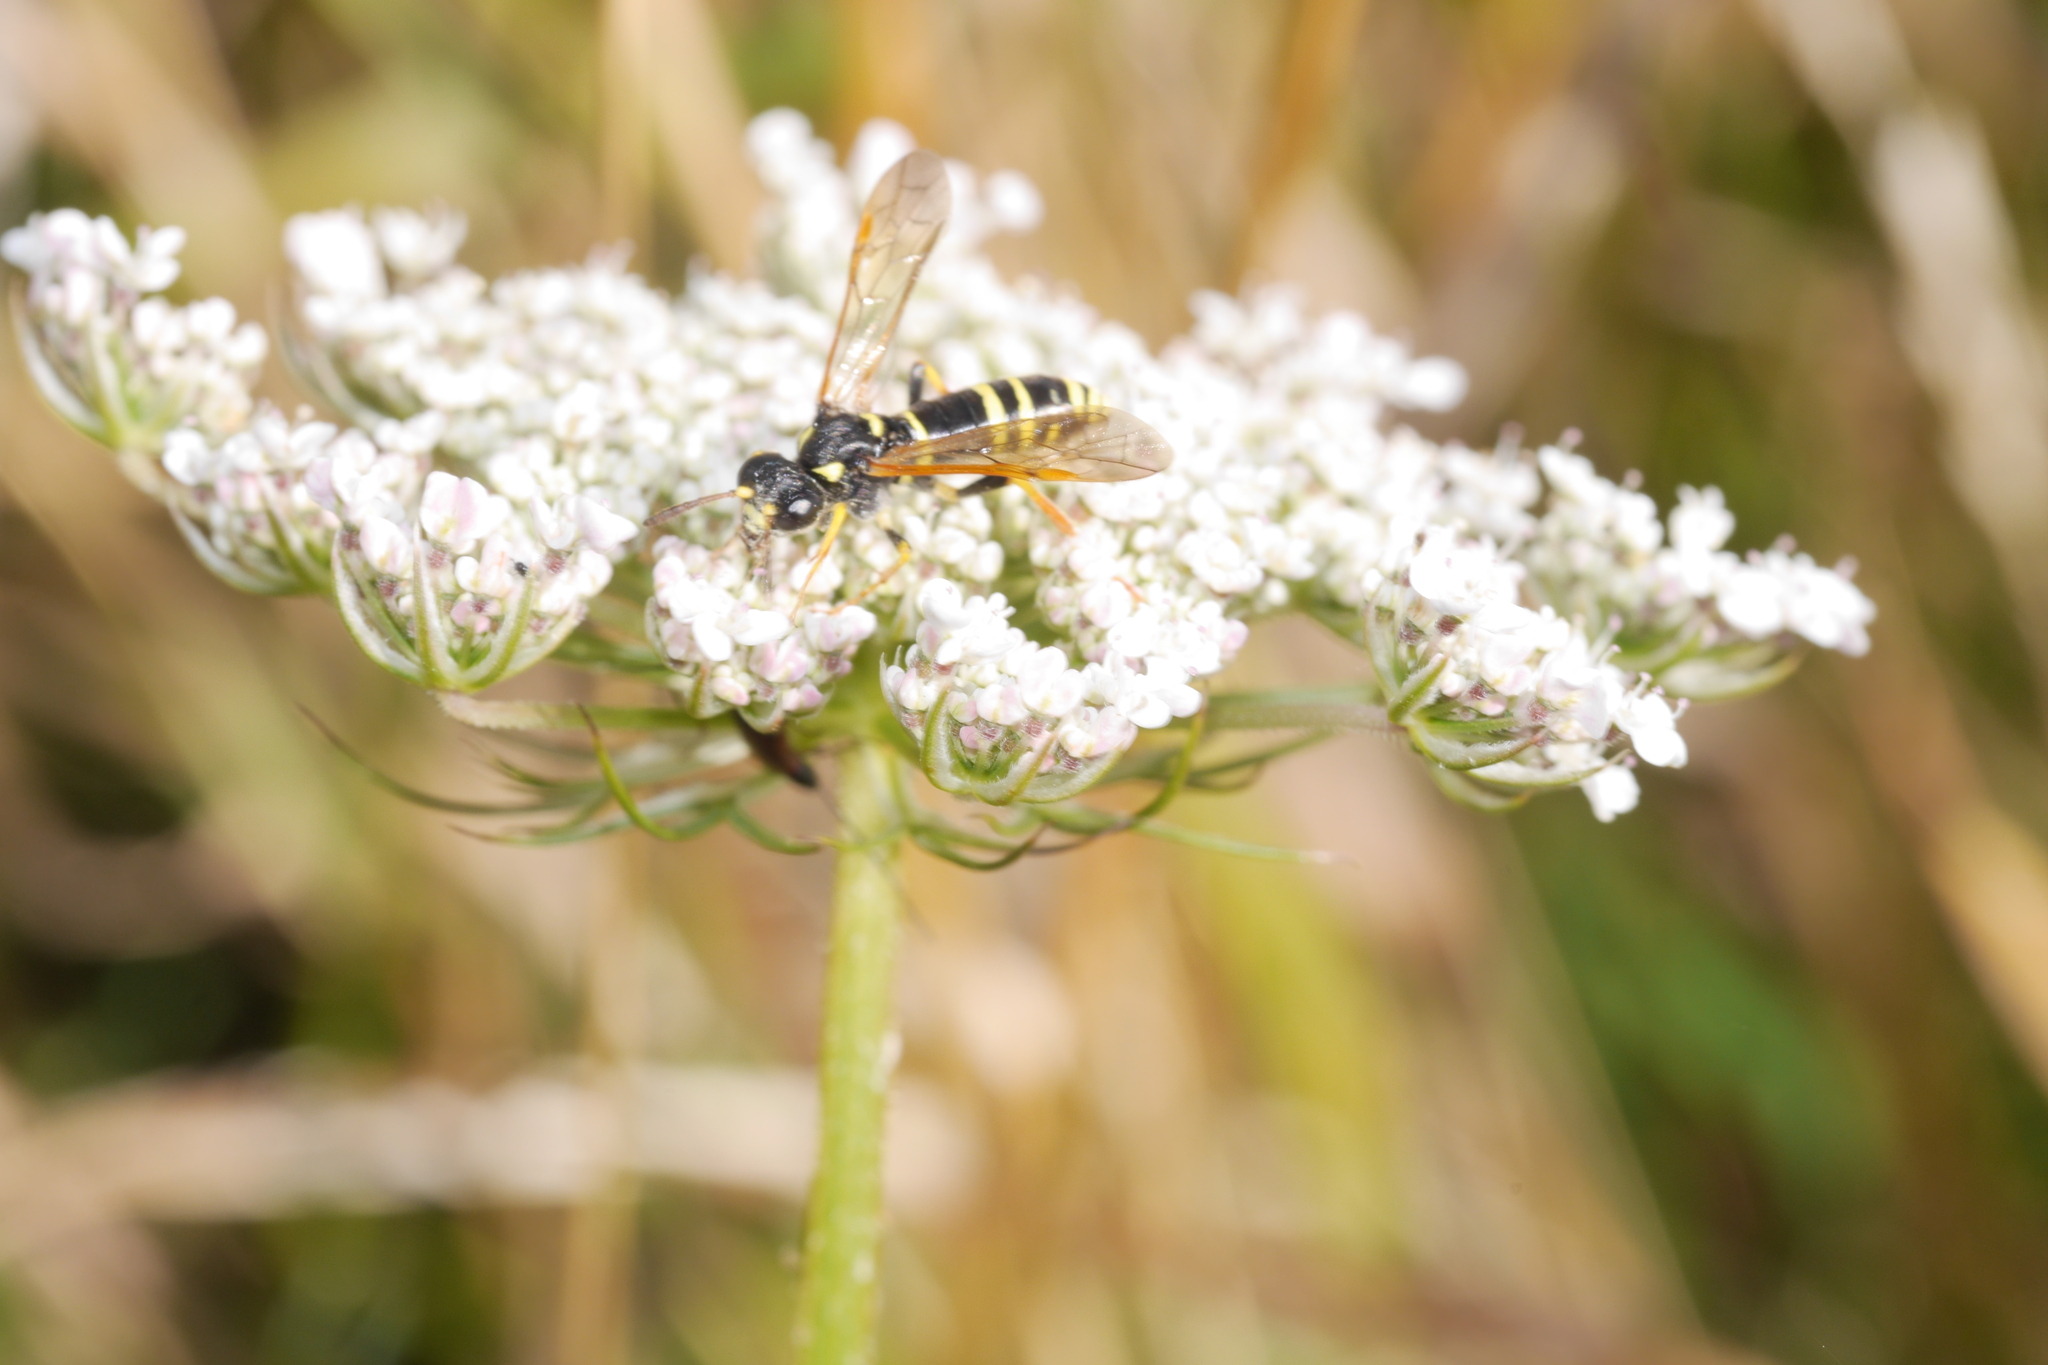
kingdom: Animalia
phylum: Arthropoda
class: Insecta
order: Hymenoptera
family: Tenthredinidae
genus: Tenthredo
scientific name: Tenthredo omissa
